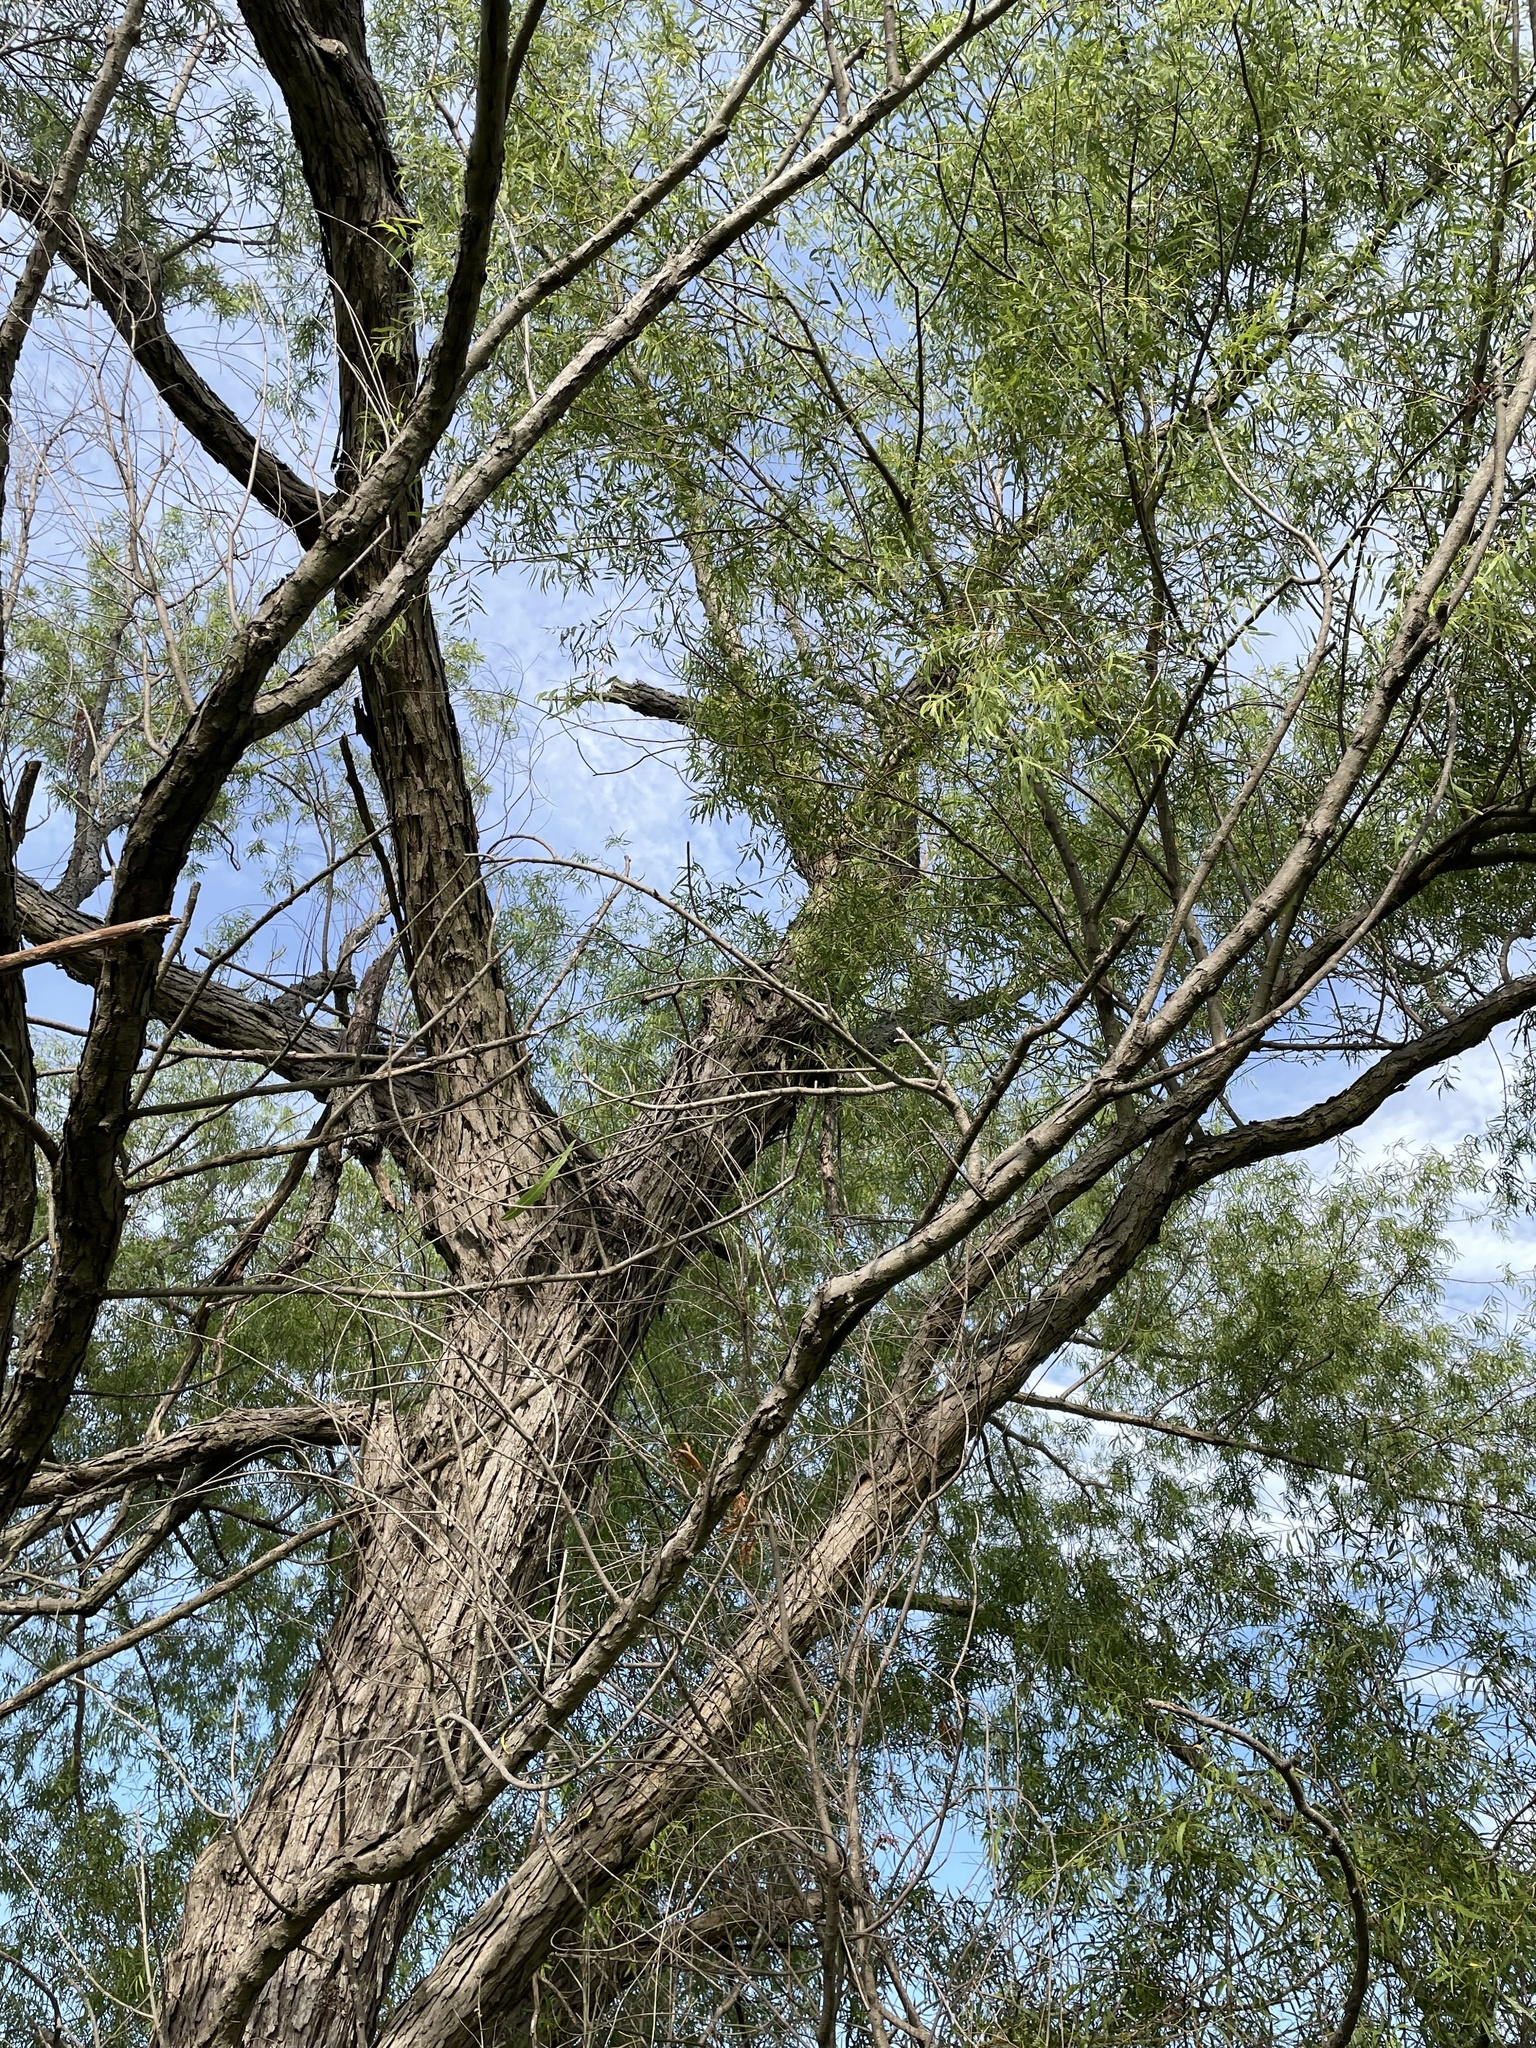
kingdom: Plantae
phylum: Tracheophyta
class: Magnoliopsida
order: Malpighiales
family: Salicaceae
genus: Salix
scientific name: Salix nigra
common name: Black willow
